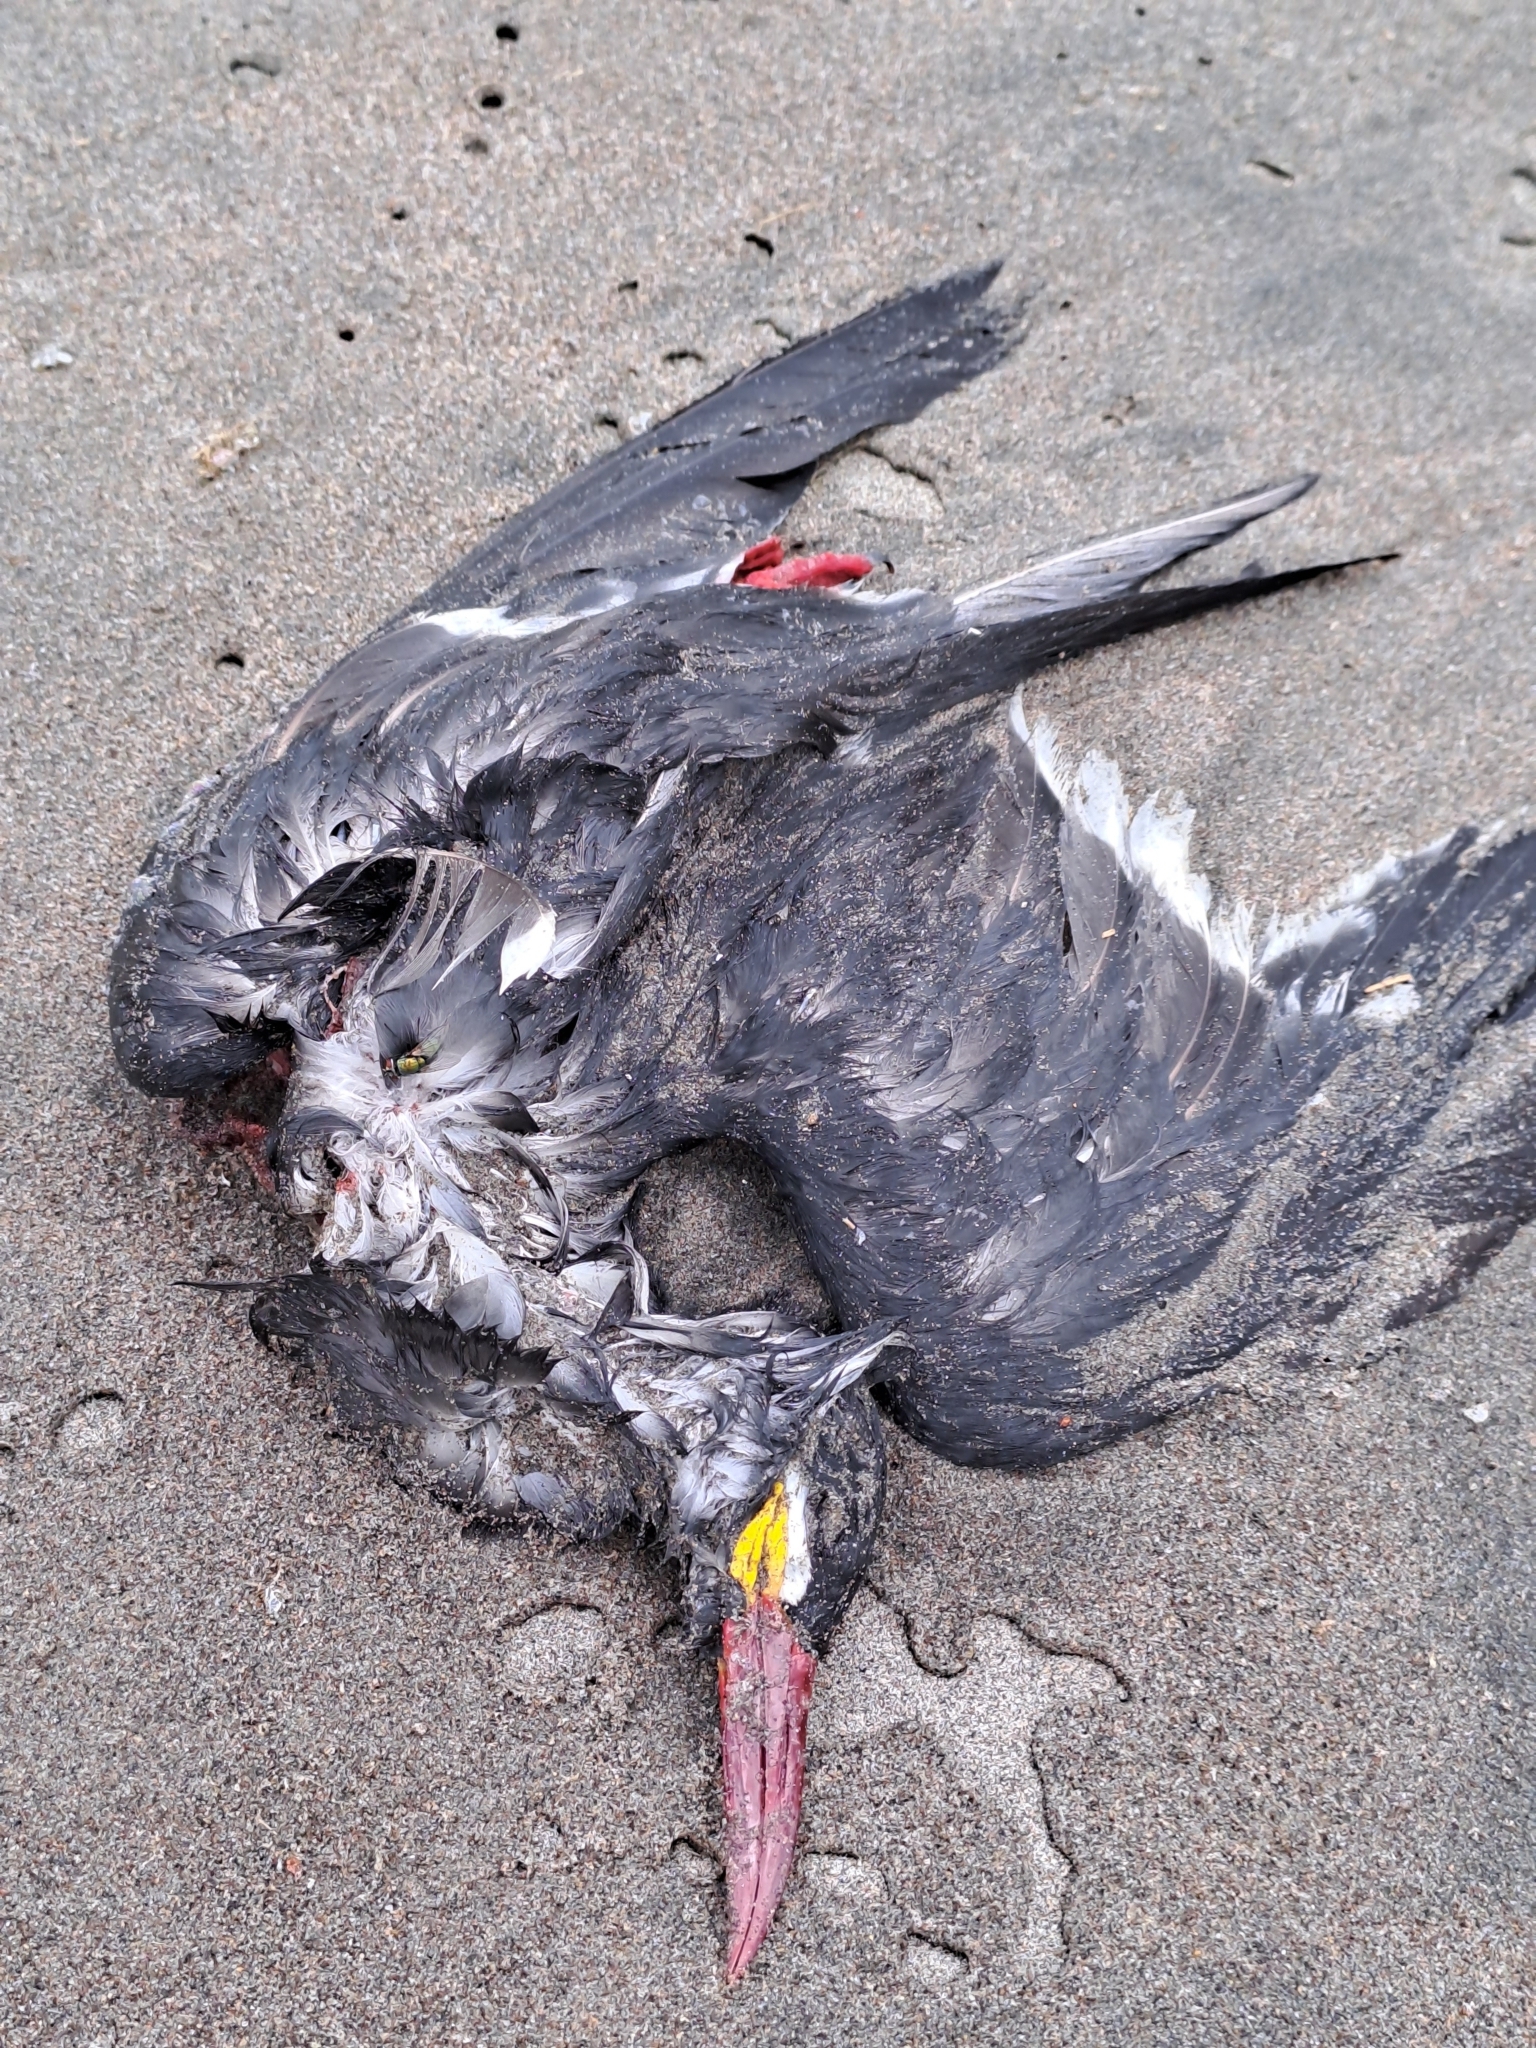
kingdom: Animalia
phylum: Chordata
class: Aves
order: Charadriiformes
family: Laridae
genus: Larosterna
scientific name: Larosterna inca
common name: Inca tern
